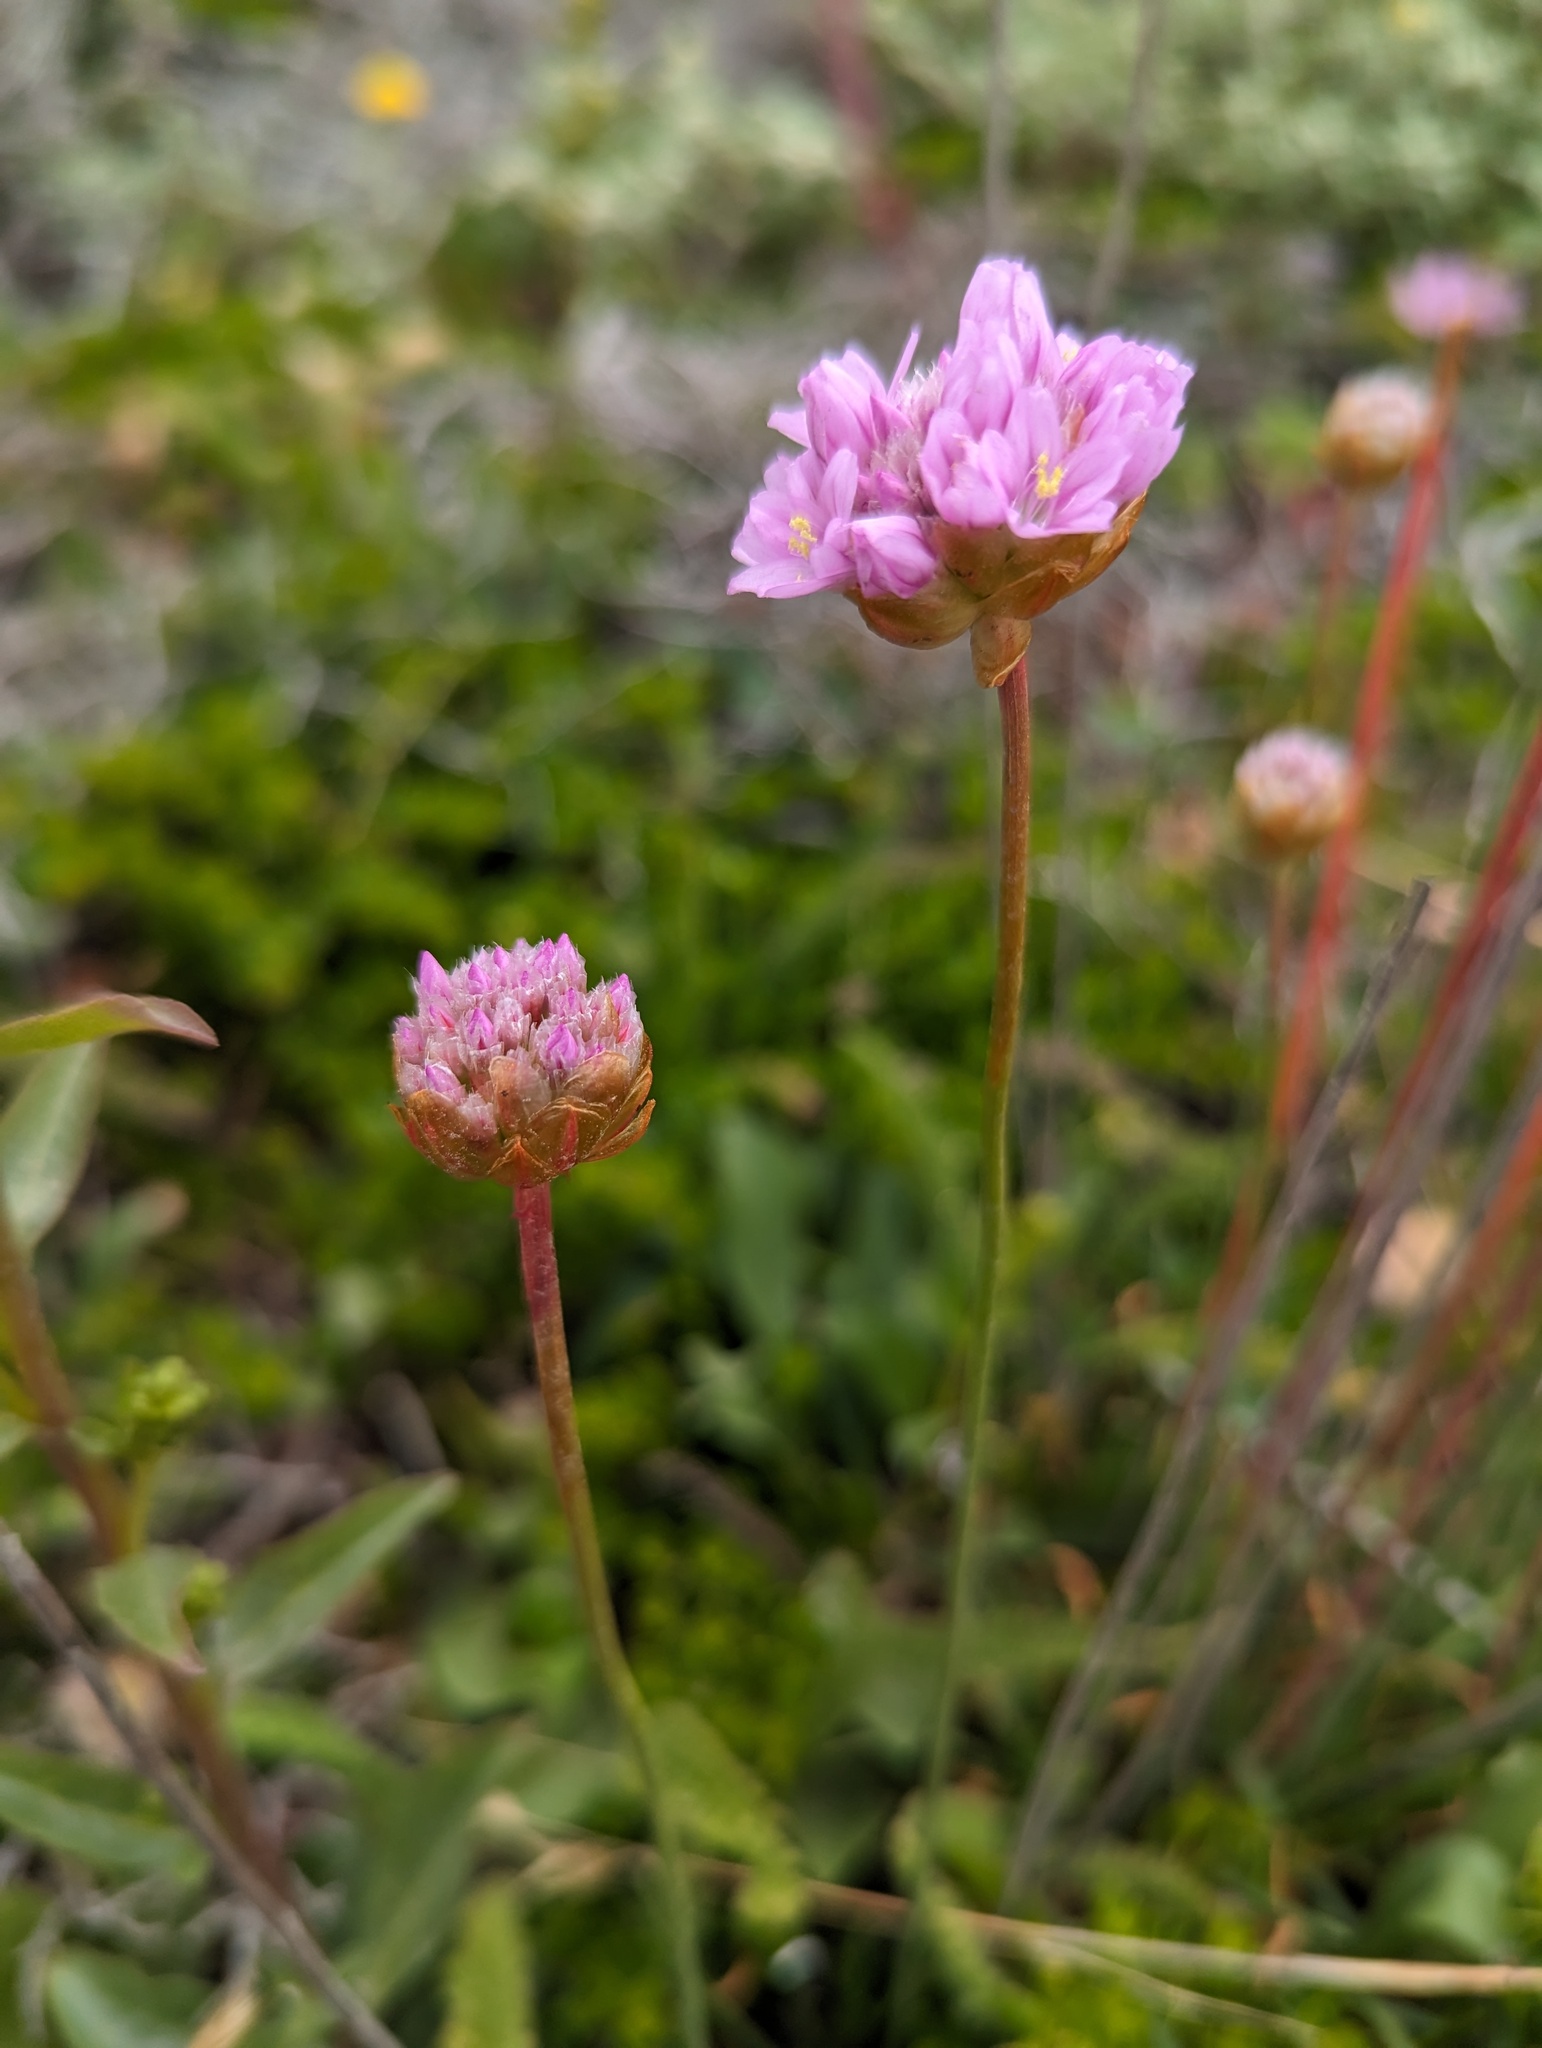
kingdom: Plantae
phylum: Tracheophyta
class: Magnoliopsida
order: Caryophyllales
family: Plumbaginaceae
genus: Armeria
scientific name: Armeria maritima
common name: Thrift
